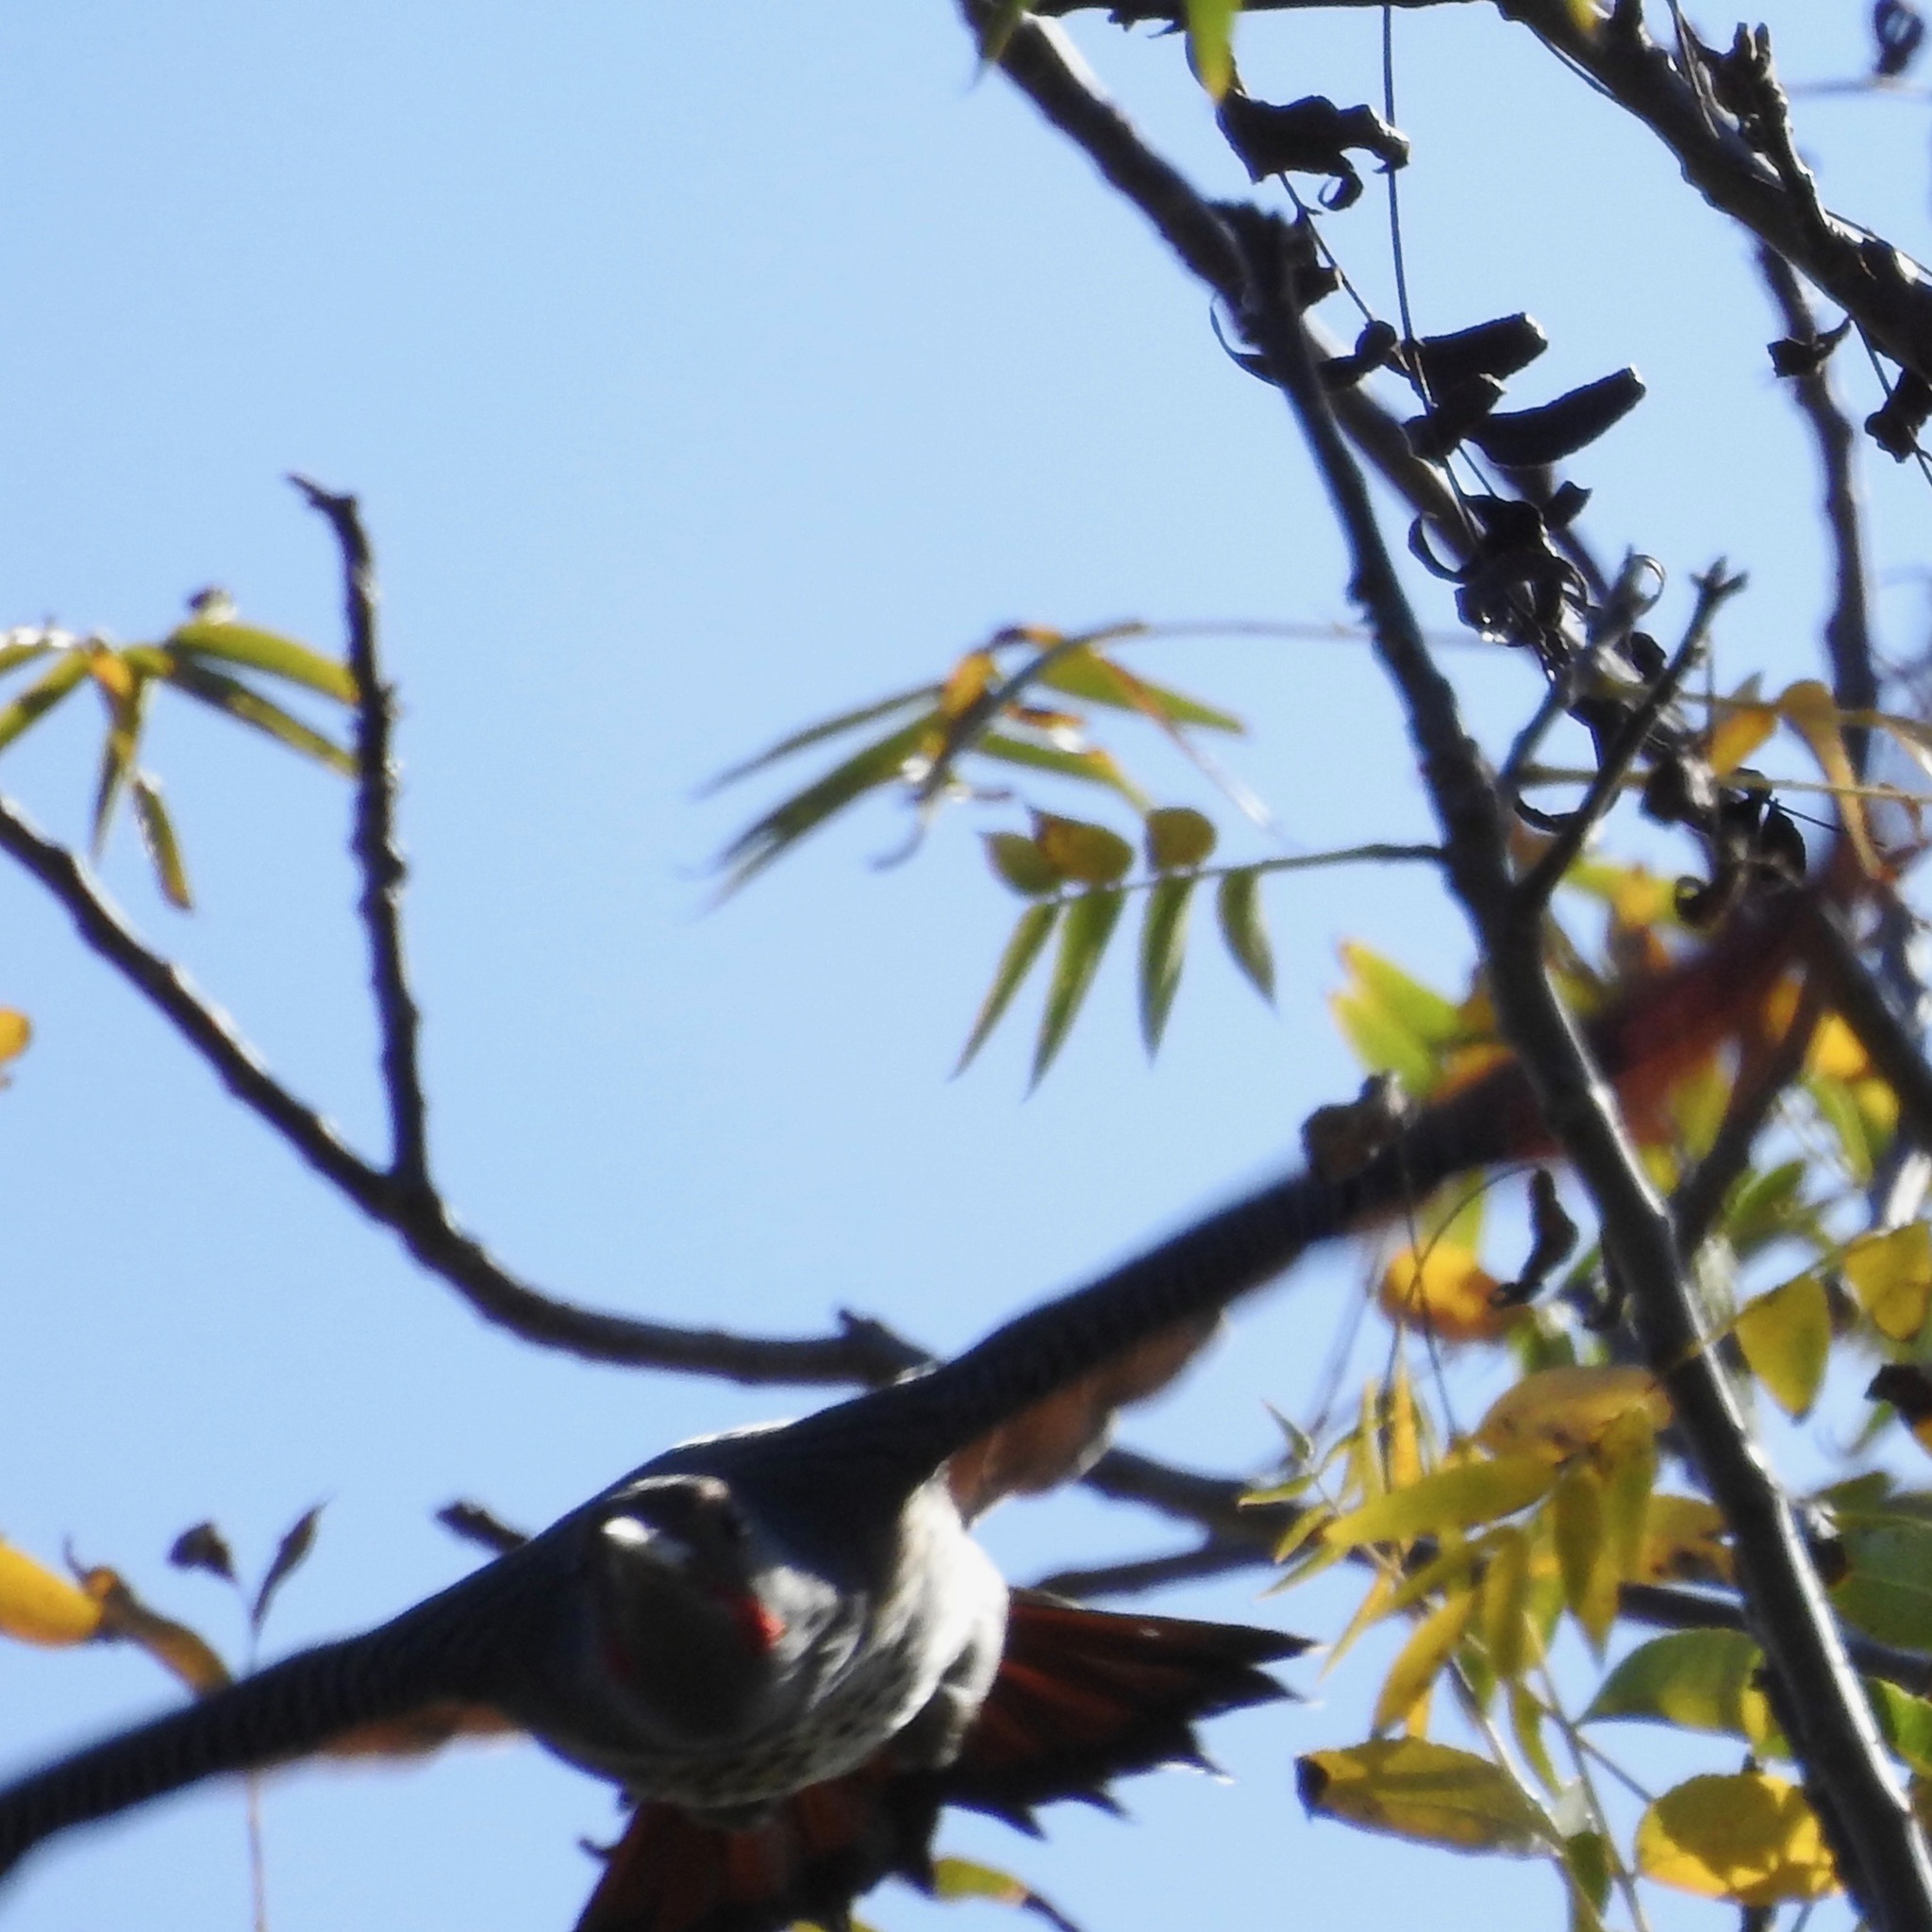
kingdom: Animalia
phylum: Chordata
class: Aves
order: Piciformes
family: Picidae
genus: Colaptes
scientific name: Colaptes auratus
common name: Northern flicker
